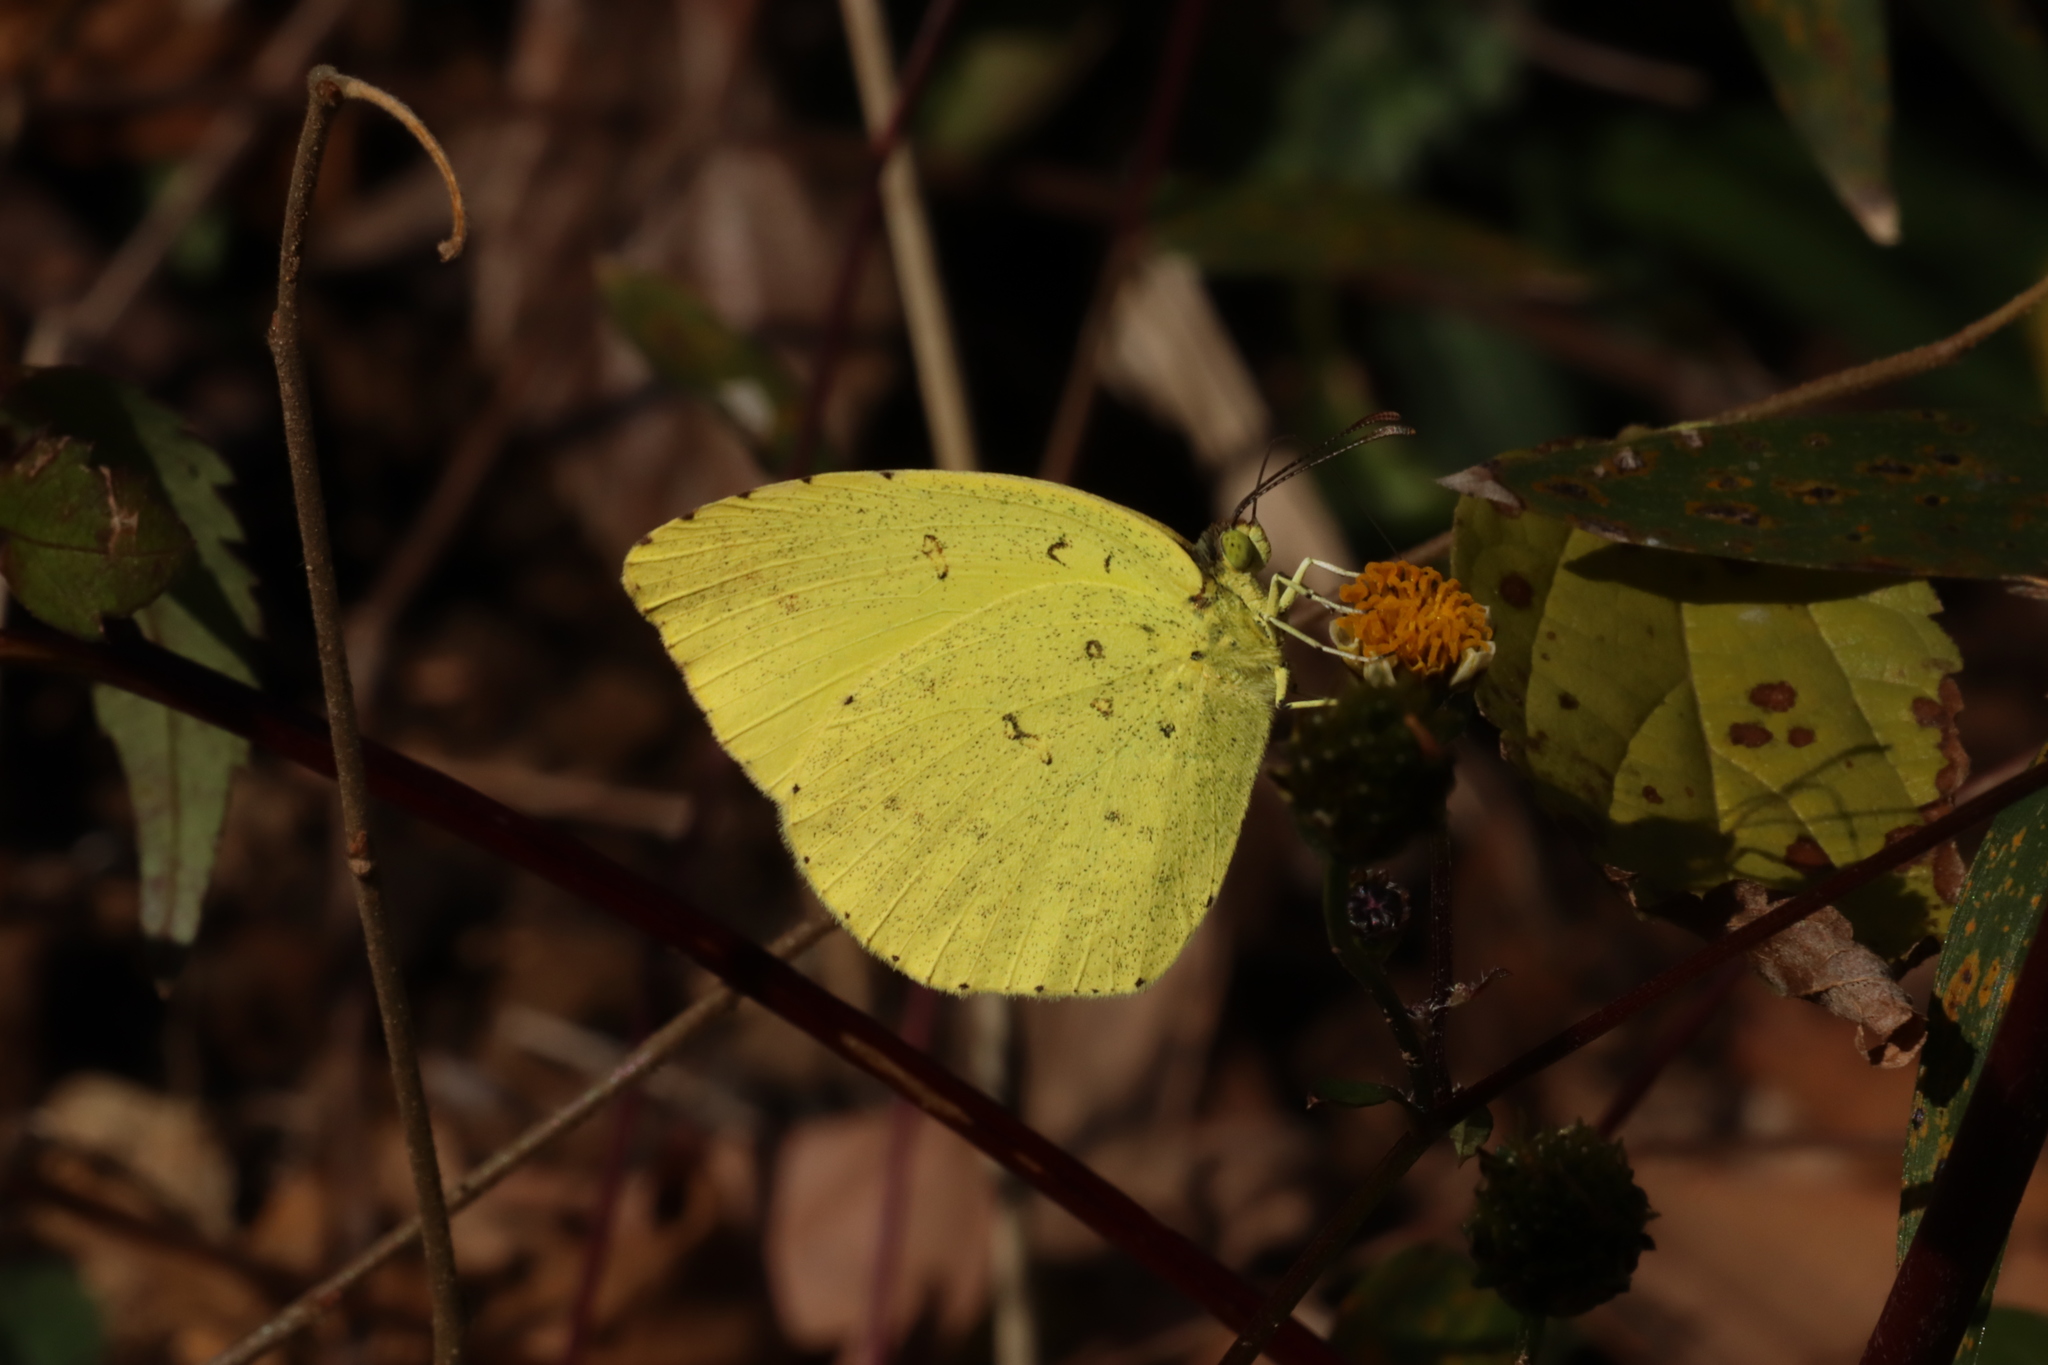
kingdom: Animalia
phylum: Arthropoda
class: Insecta
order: Lepidoptera
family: Pieridae
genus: Eurema
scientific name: Eurema mandarina
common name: Japanese common grass yellow
